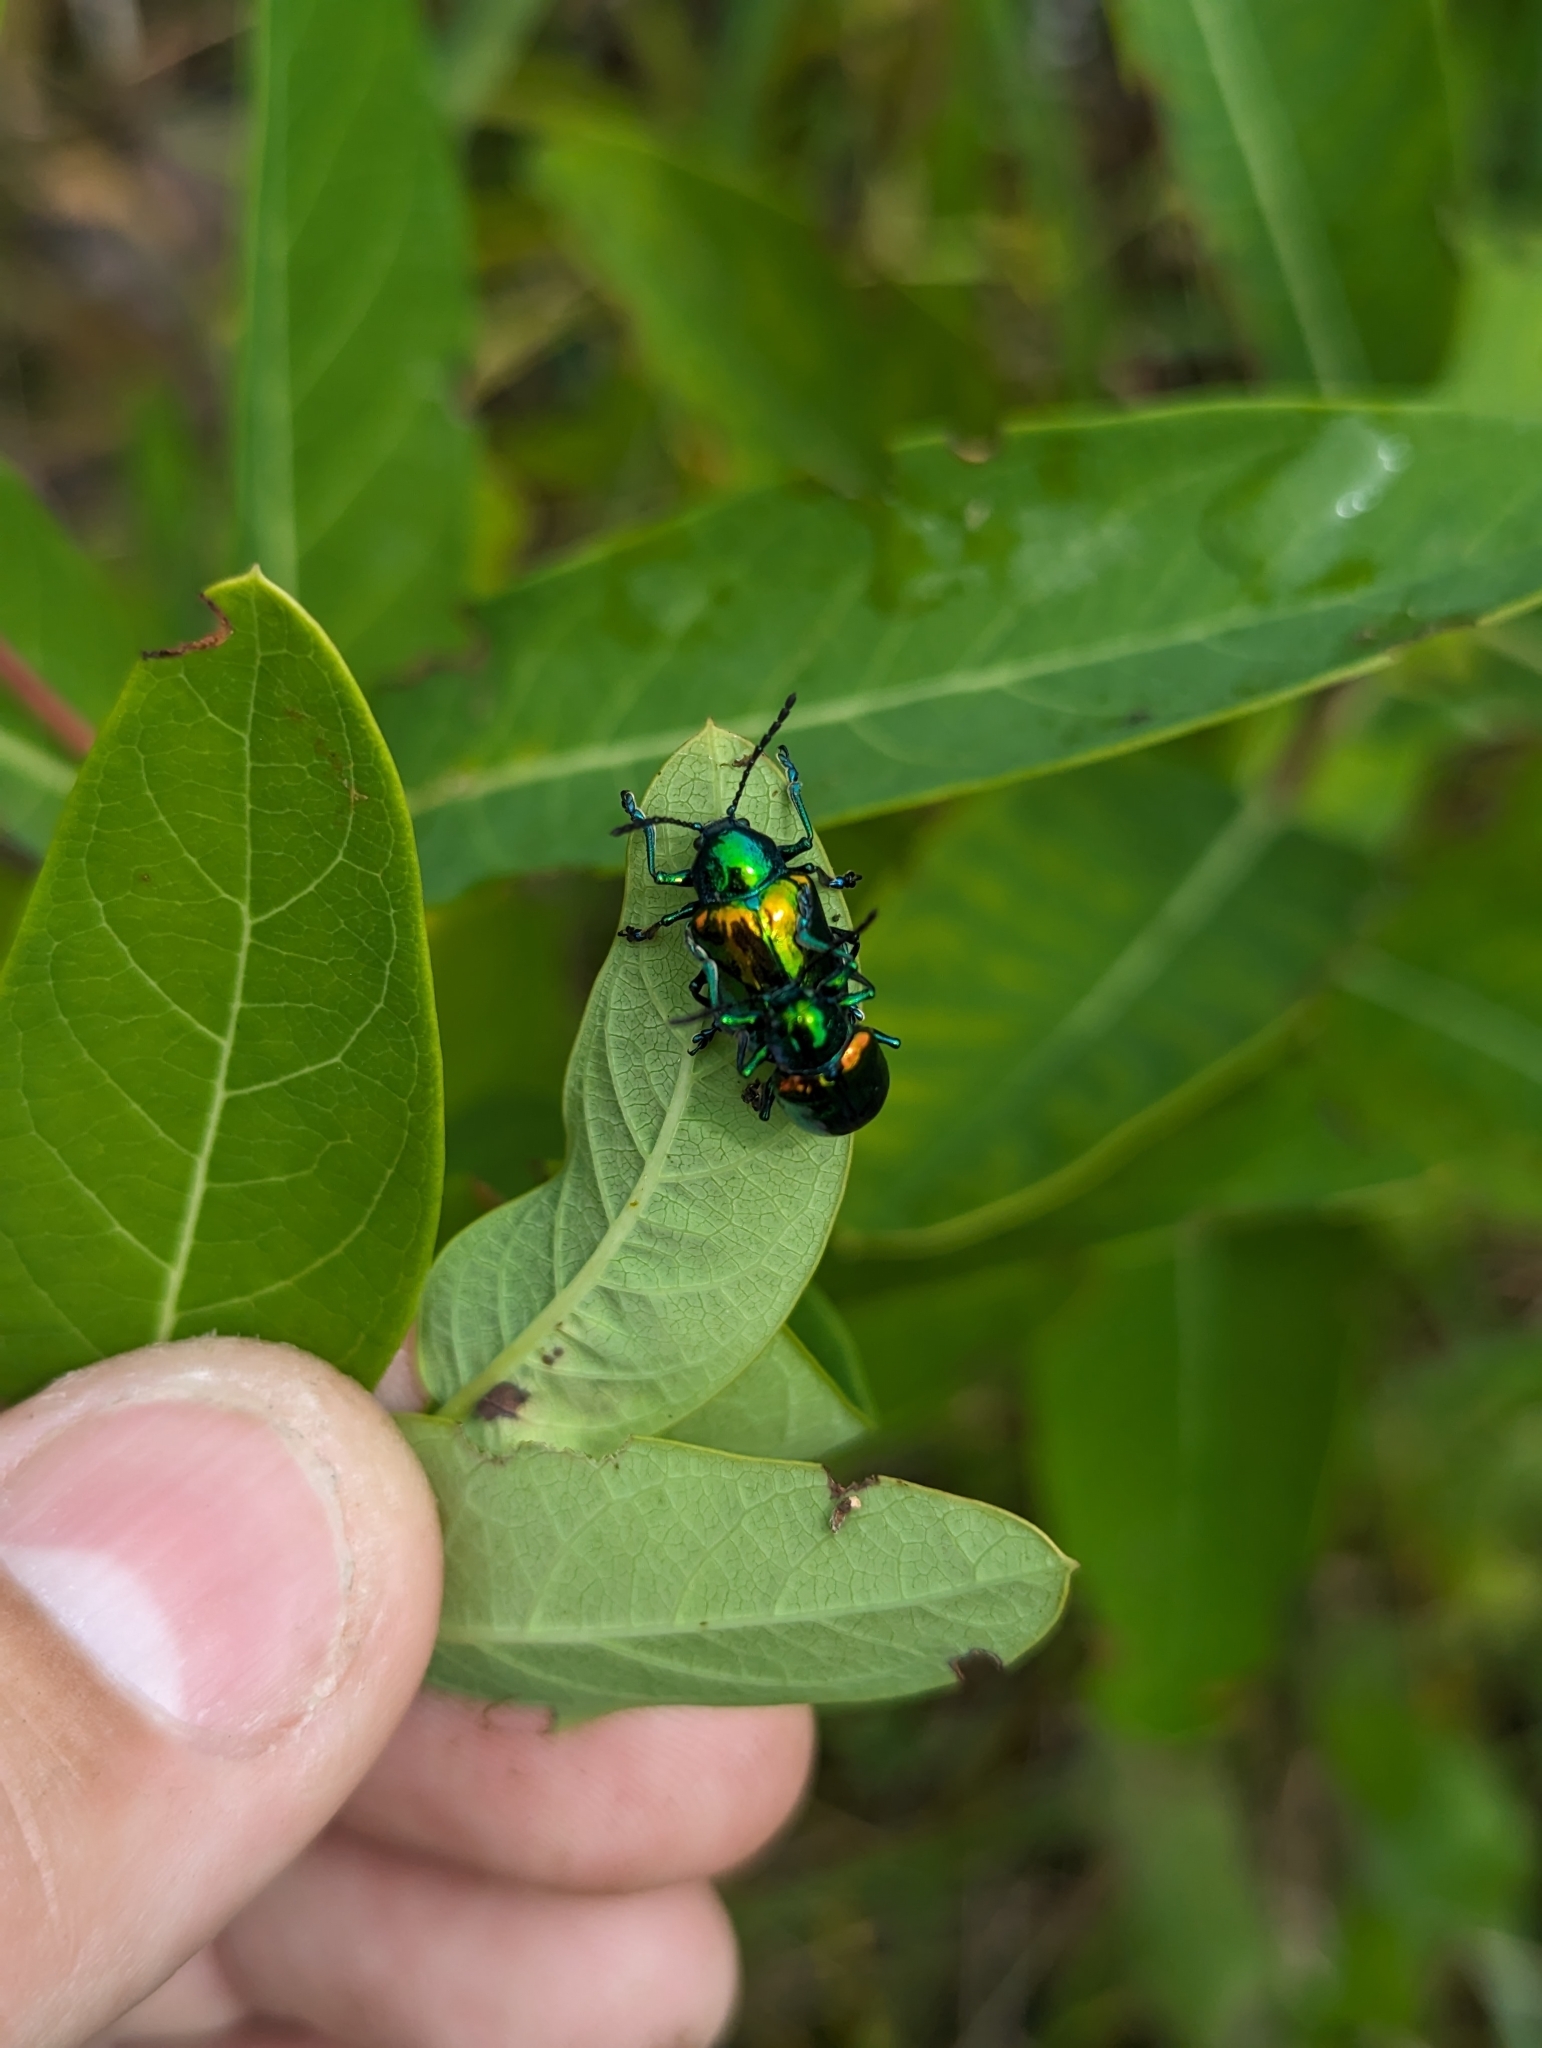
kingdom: Animalia
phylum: Arthropoda
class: Insecta
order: Coleoptera
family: Chrysomelidae
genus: Chrysochus
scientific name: Chrysochus auratus
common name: Dogbane leaf beetle
